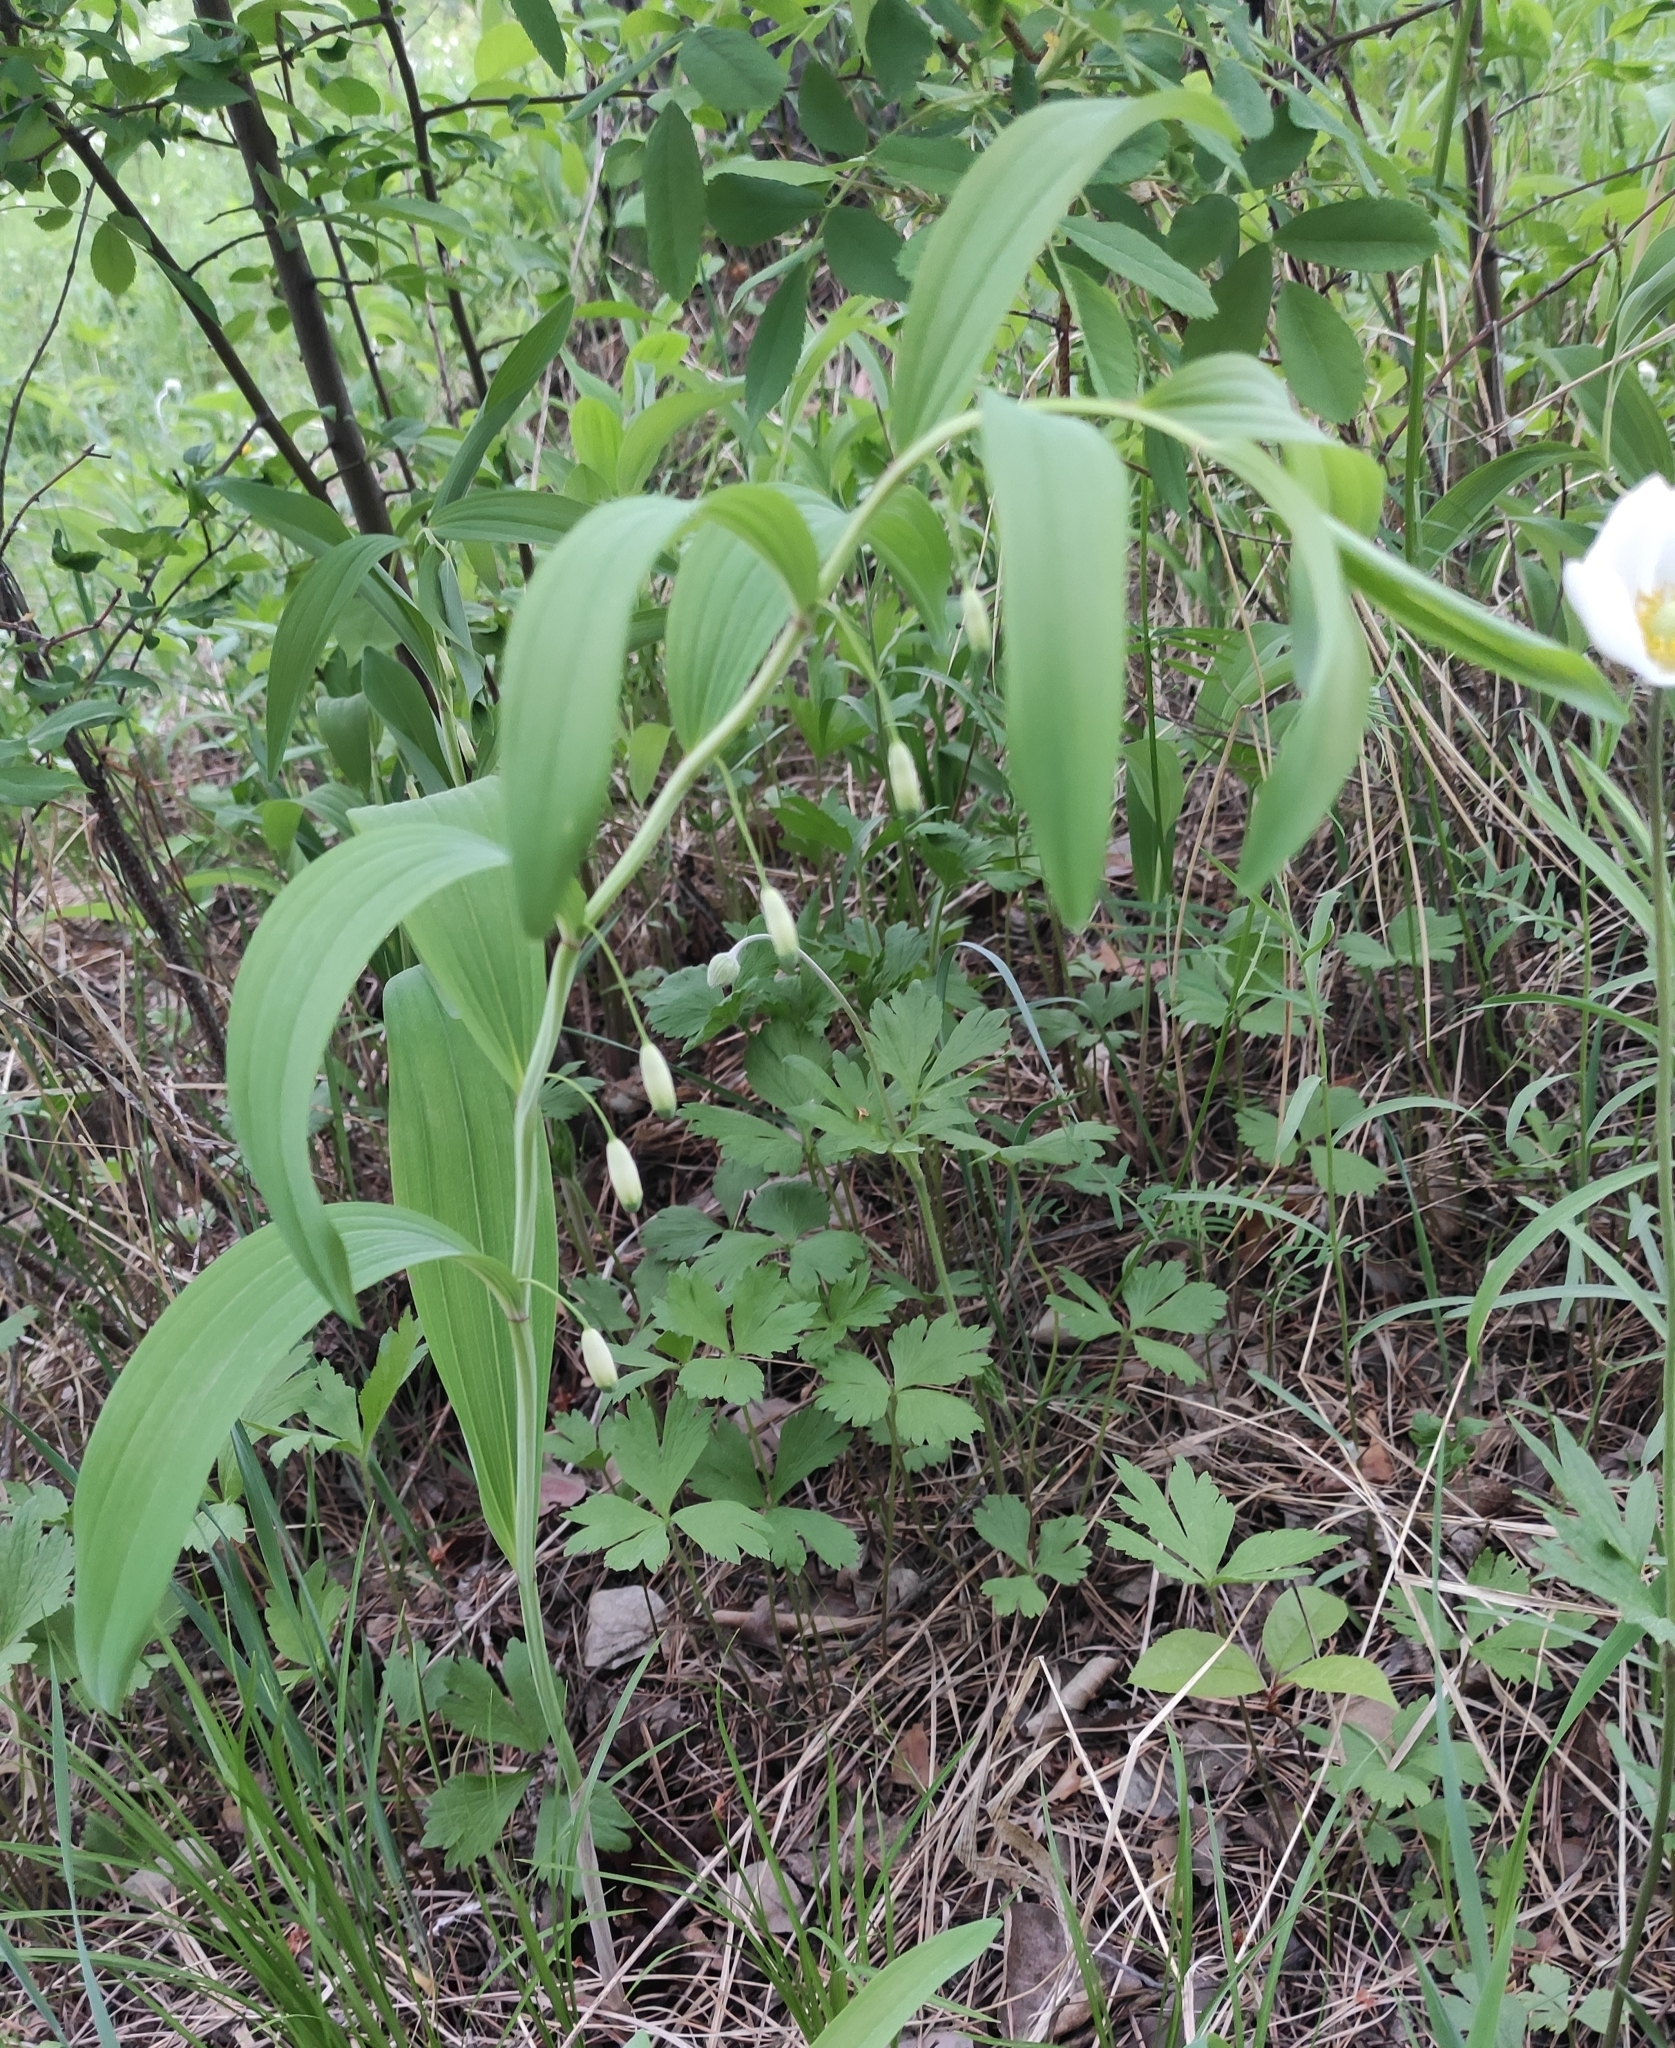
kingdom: Plantae
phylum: Tracheophyta
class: Liliopsida
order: Asparagales
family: Asparagaceae
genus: Polygonatum
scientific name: Polygonatum odoratum
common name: Angular solomon's-seal
